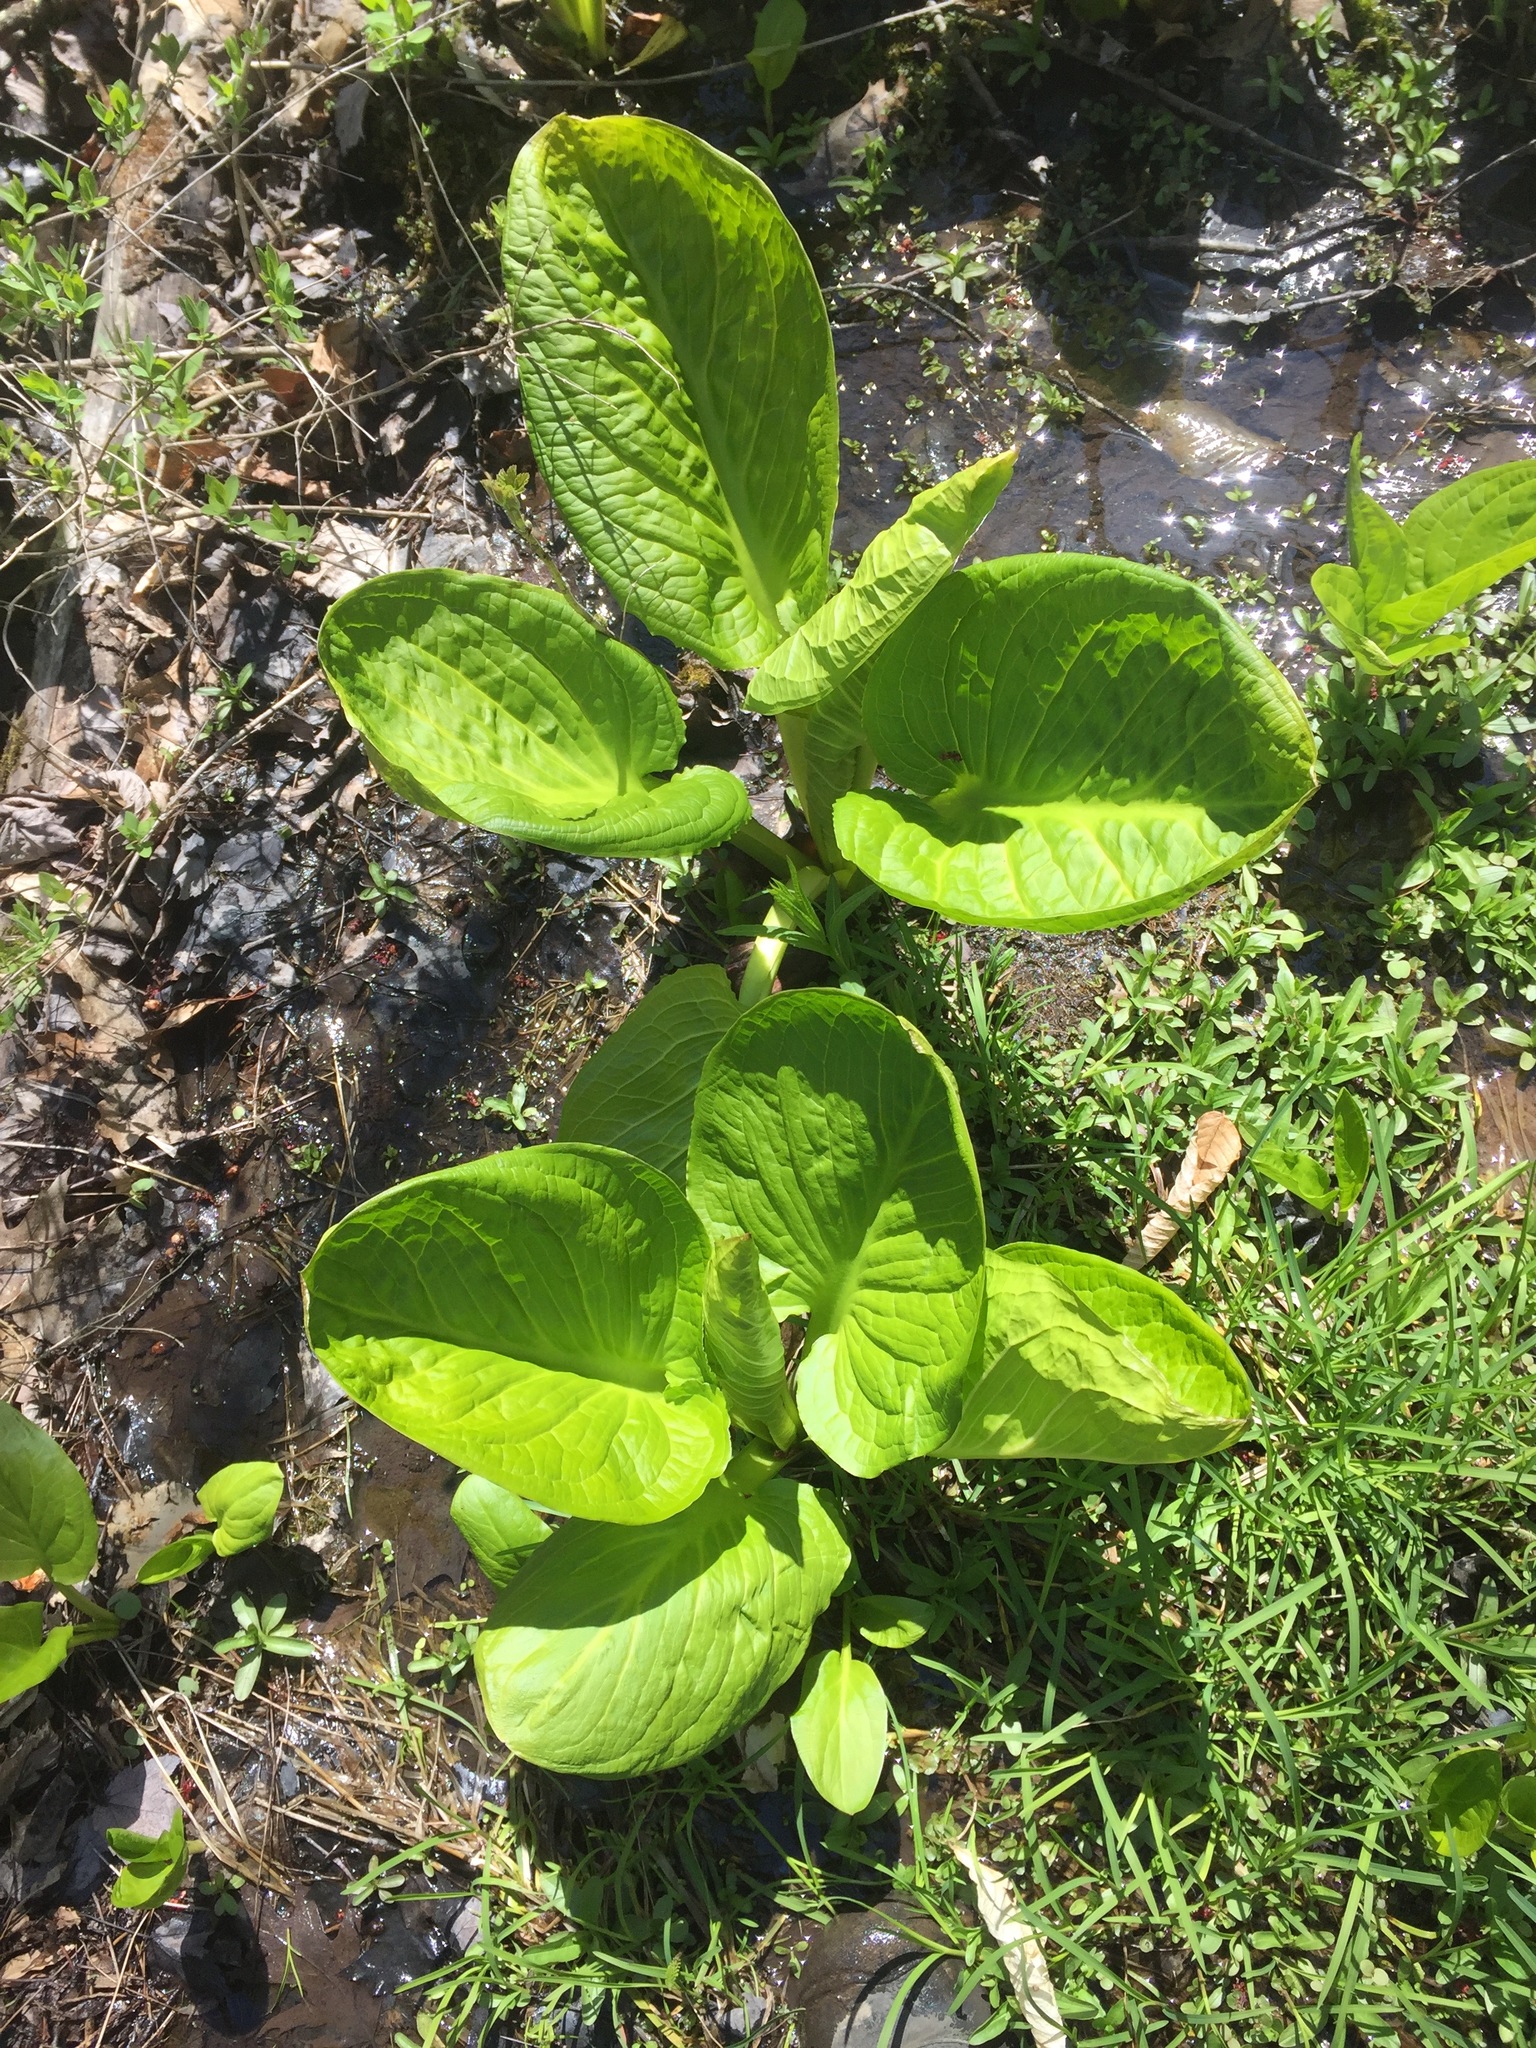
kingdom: Plantae
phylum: Tracheophyta
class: Liliopsida
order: Alismatales
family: Araceae
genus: Symplocarpus
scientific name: Symplocarpus foetidus
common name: Eastern skunk cabbage
